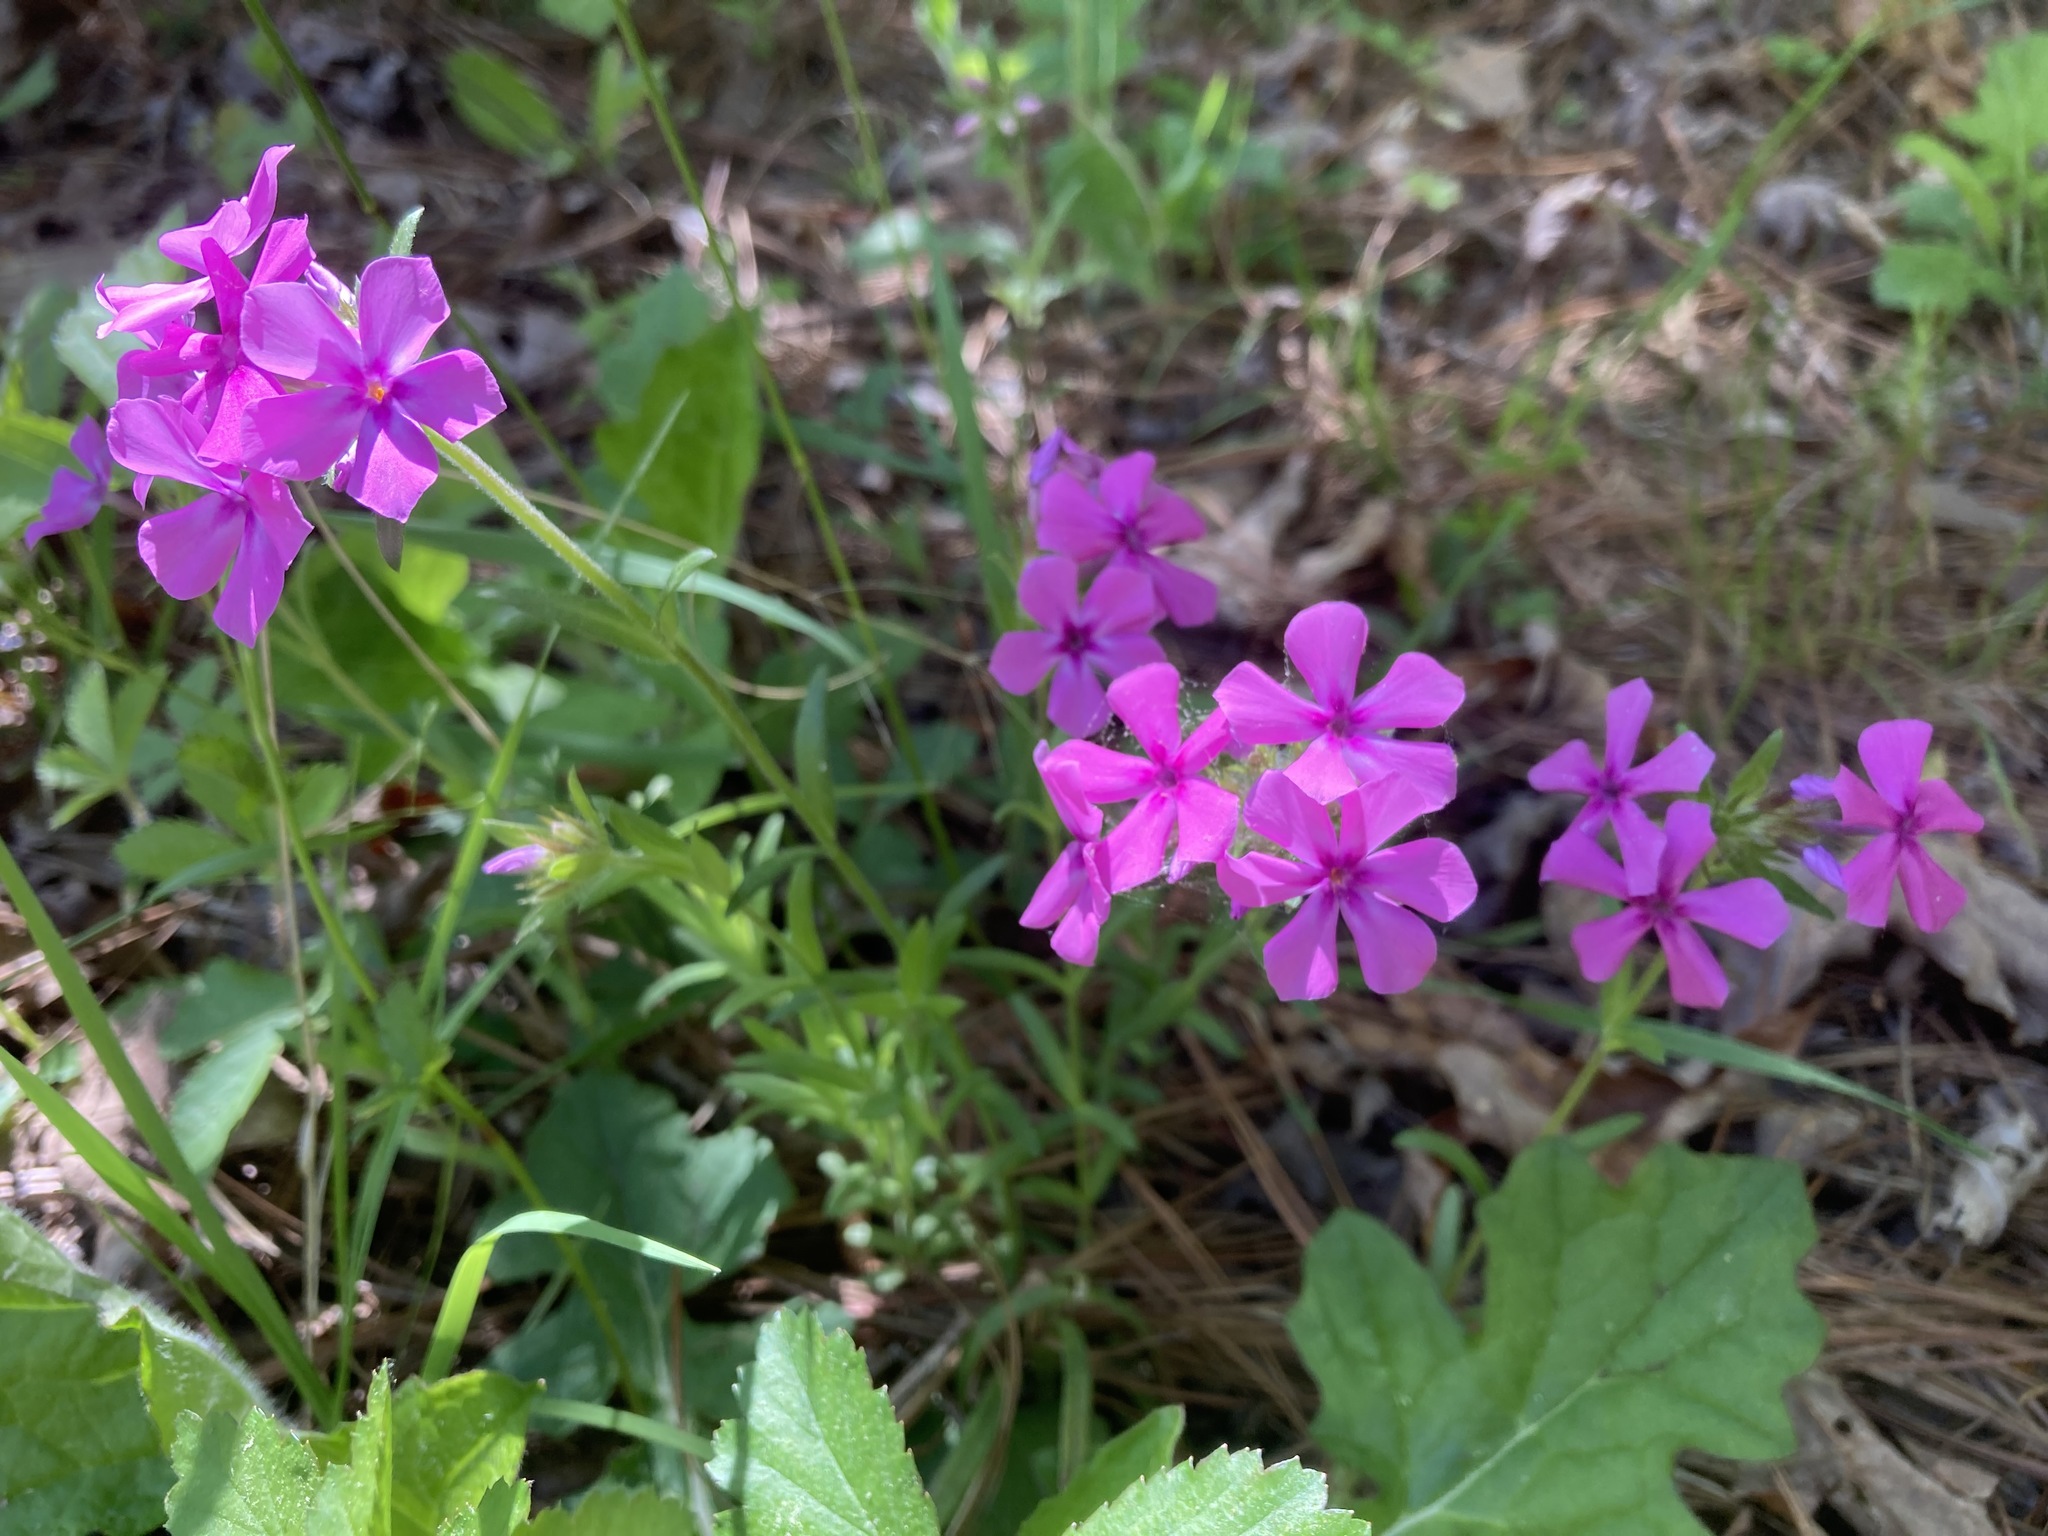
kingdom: Plantae
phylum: Tracheophyta
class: Magnoliopsida
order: Ericales
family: Polemoniaceae
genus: Phlox
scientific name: Phlox amoena
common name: Hairy phlox
